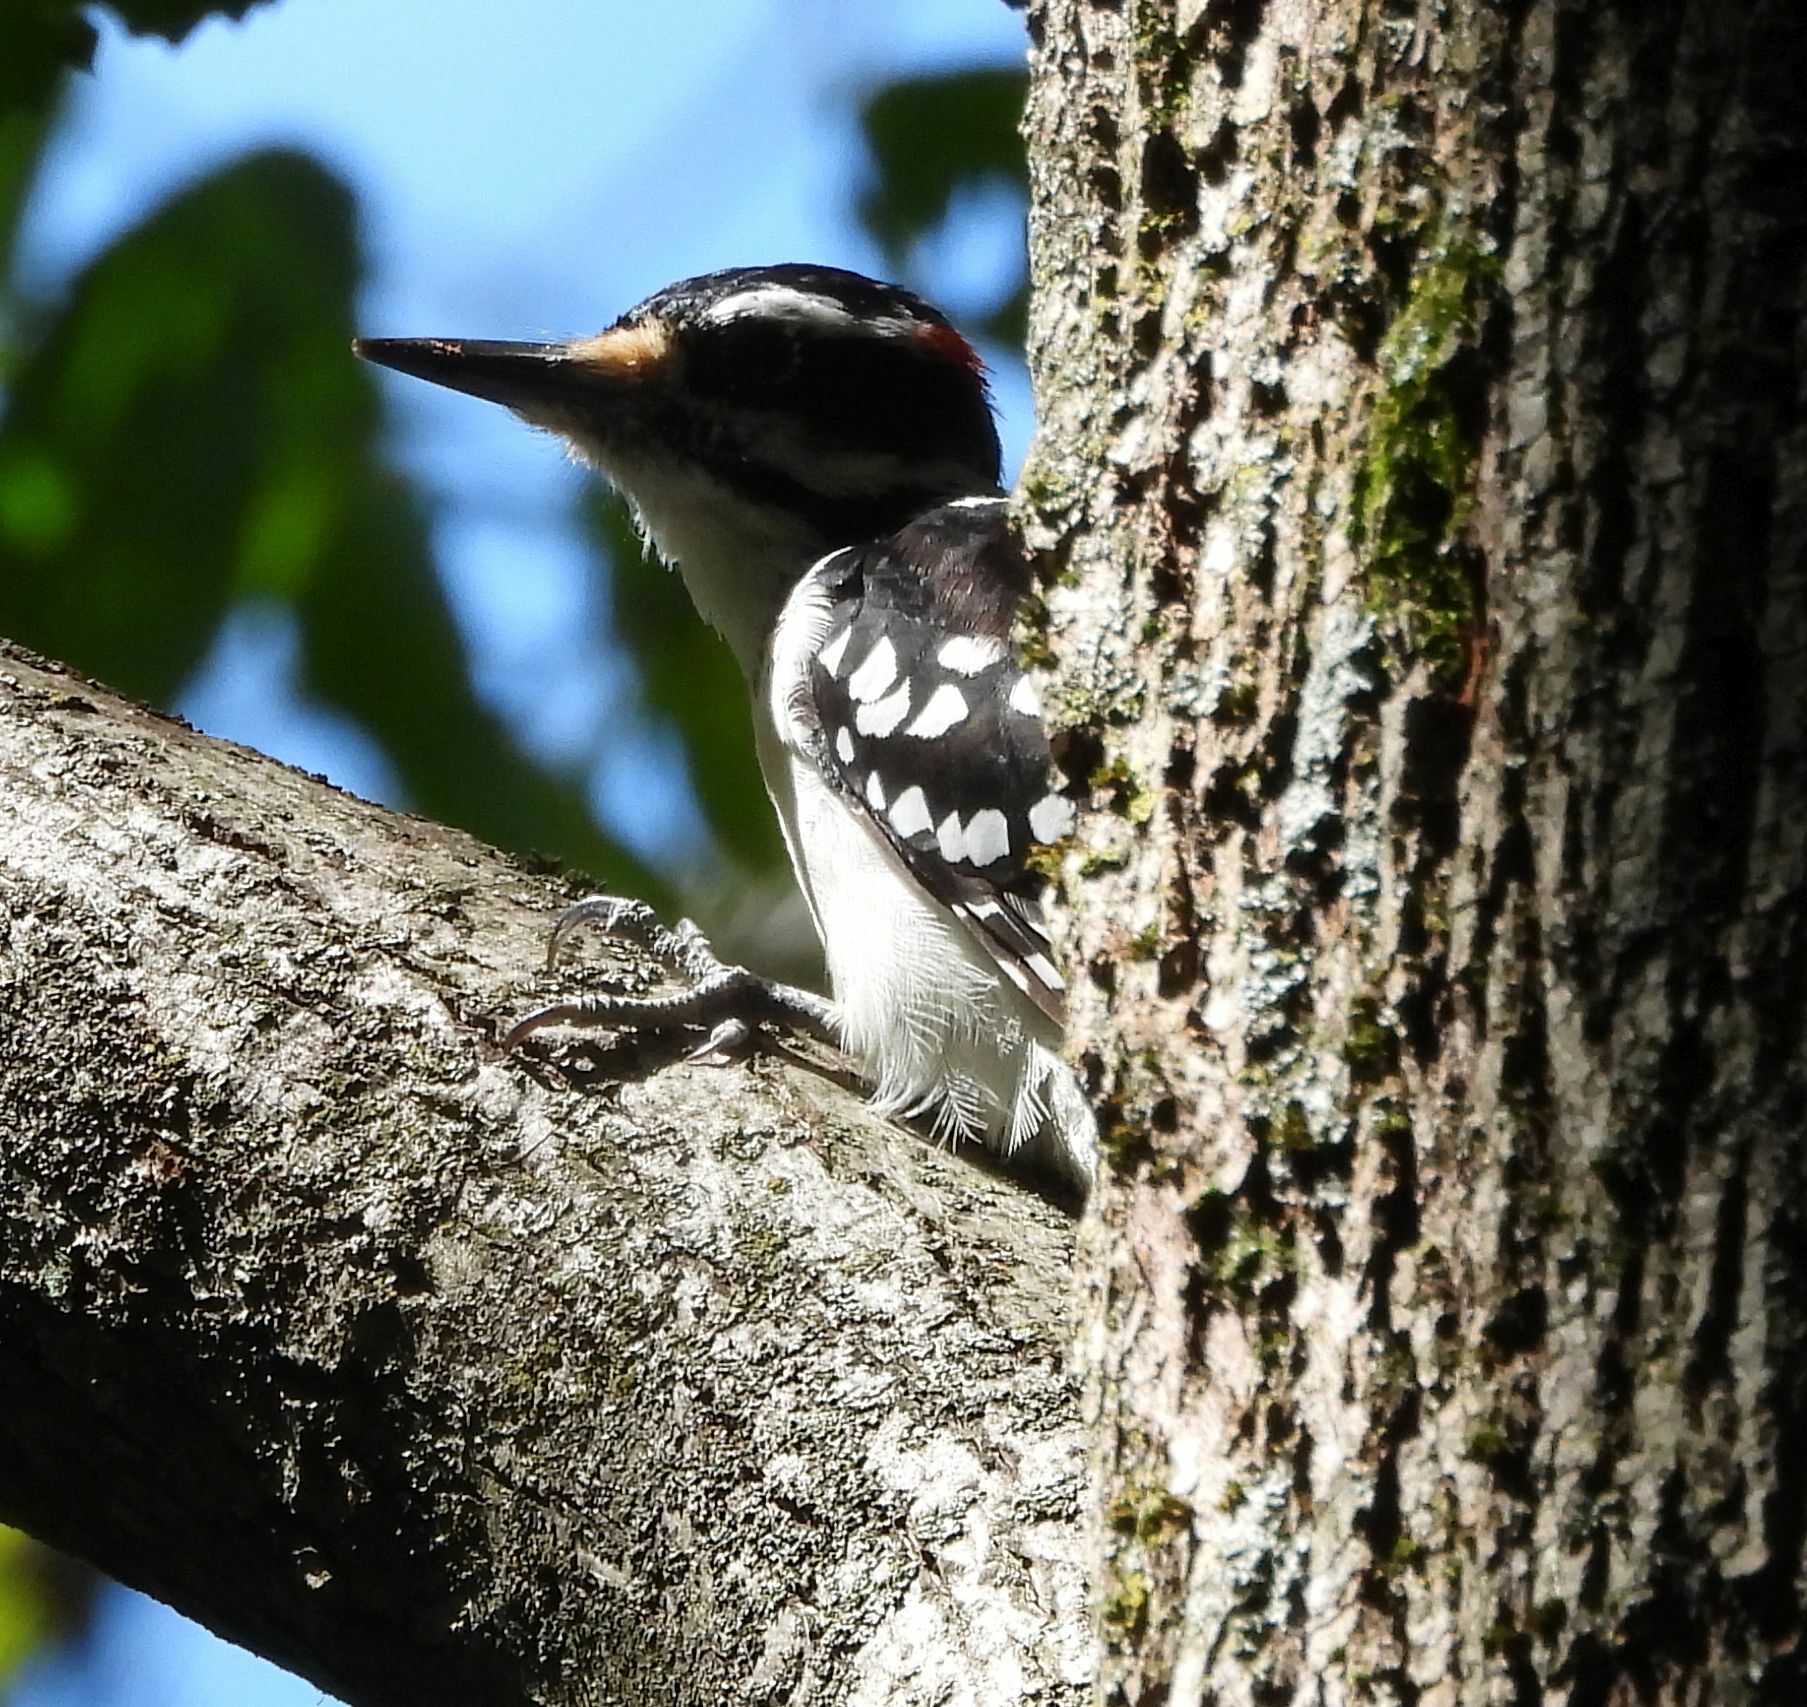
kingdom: Animalia
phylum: Chordata
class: Aves
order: Piciformes
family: Picidae
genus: Leuconotopicus
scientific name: Leuconotopicus villosus
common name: Hairy woodpecker
